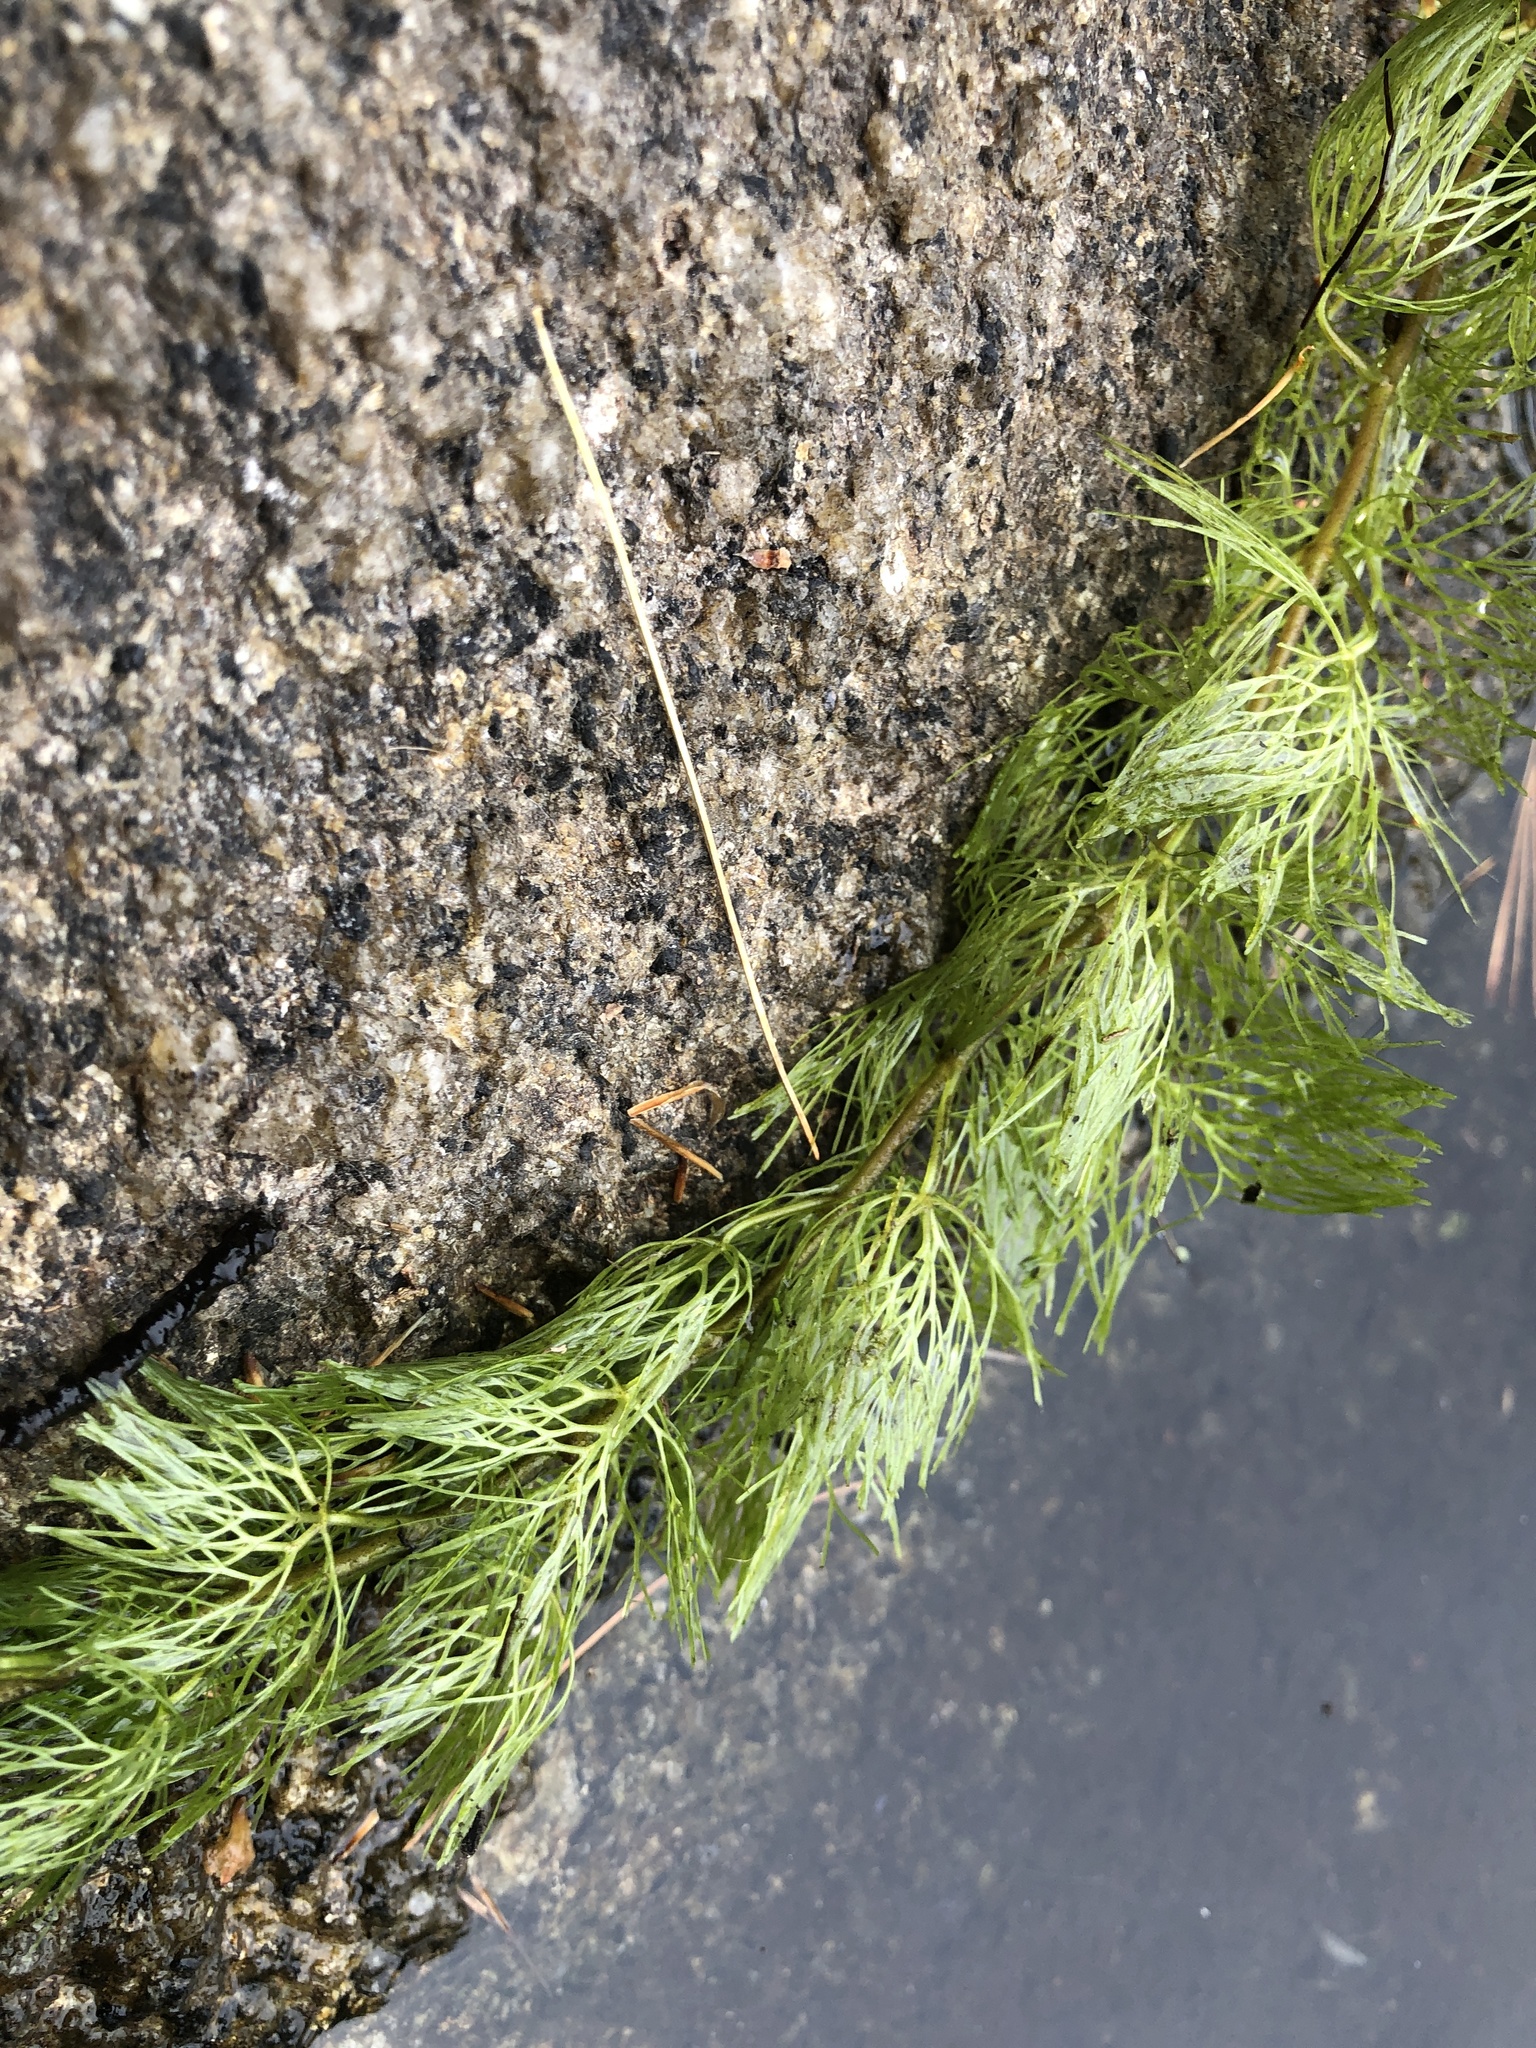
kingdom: Plantae
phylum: Tracheophyta
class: Magnoliopsida
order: Nymphaeales
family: Cabombaceae
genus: Cabomba
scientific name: Cabomba caroliniana
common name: Fanwort
